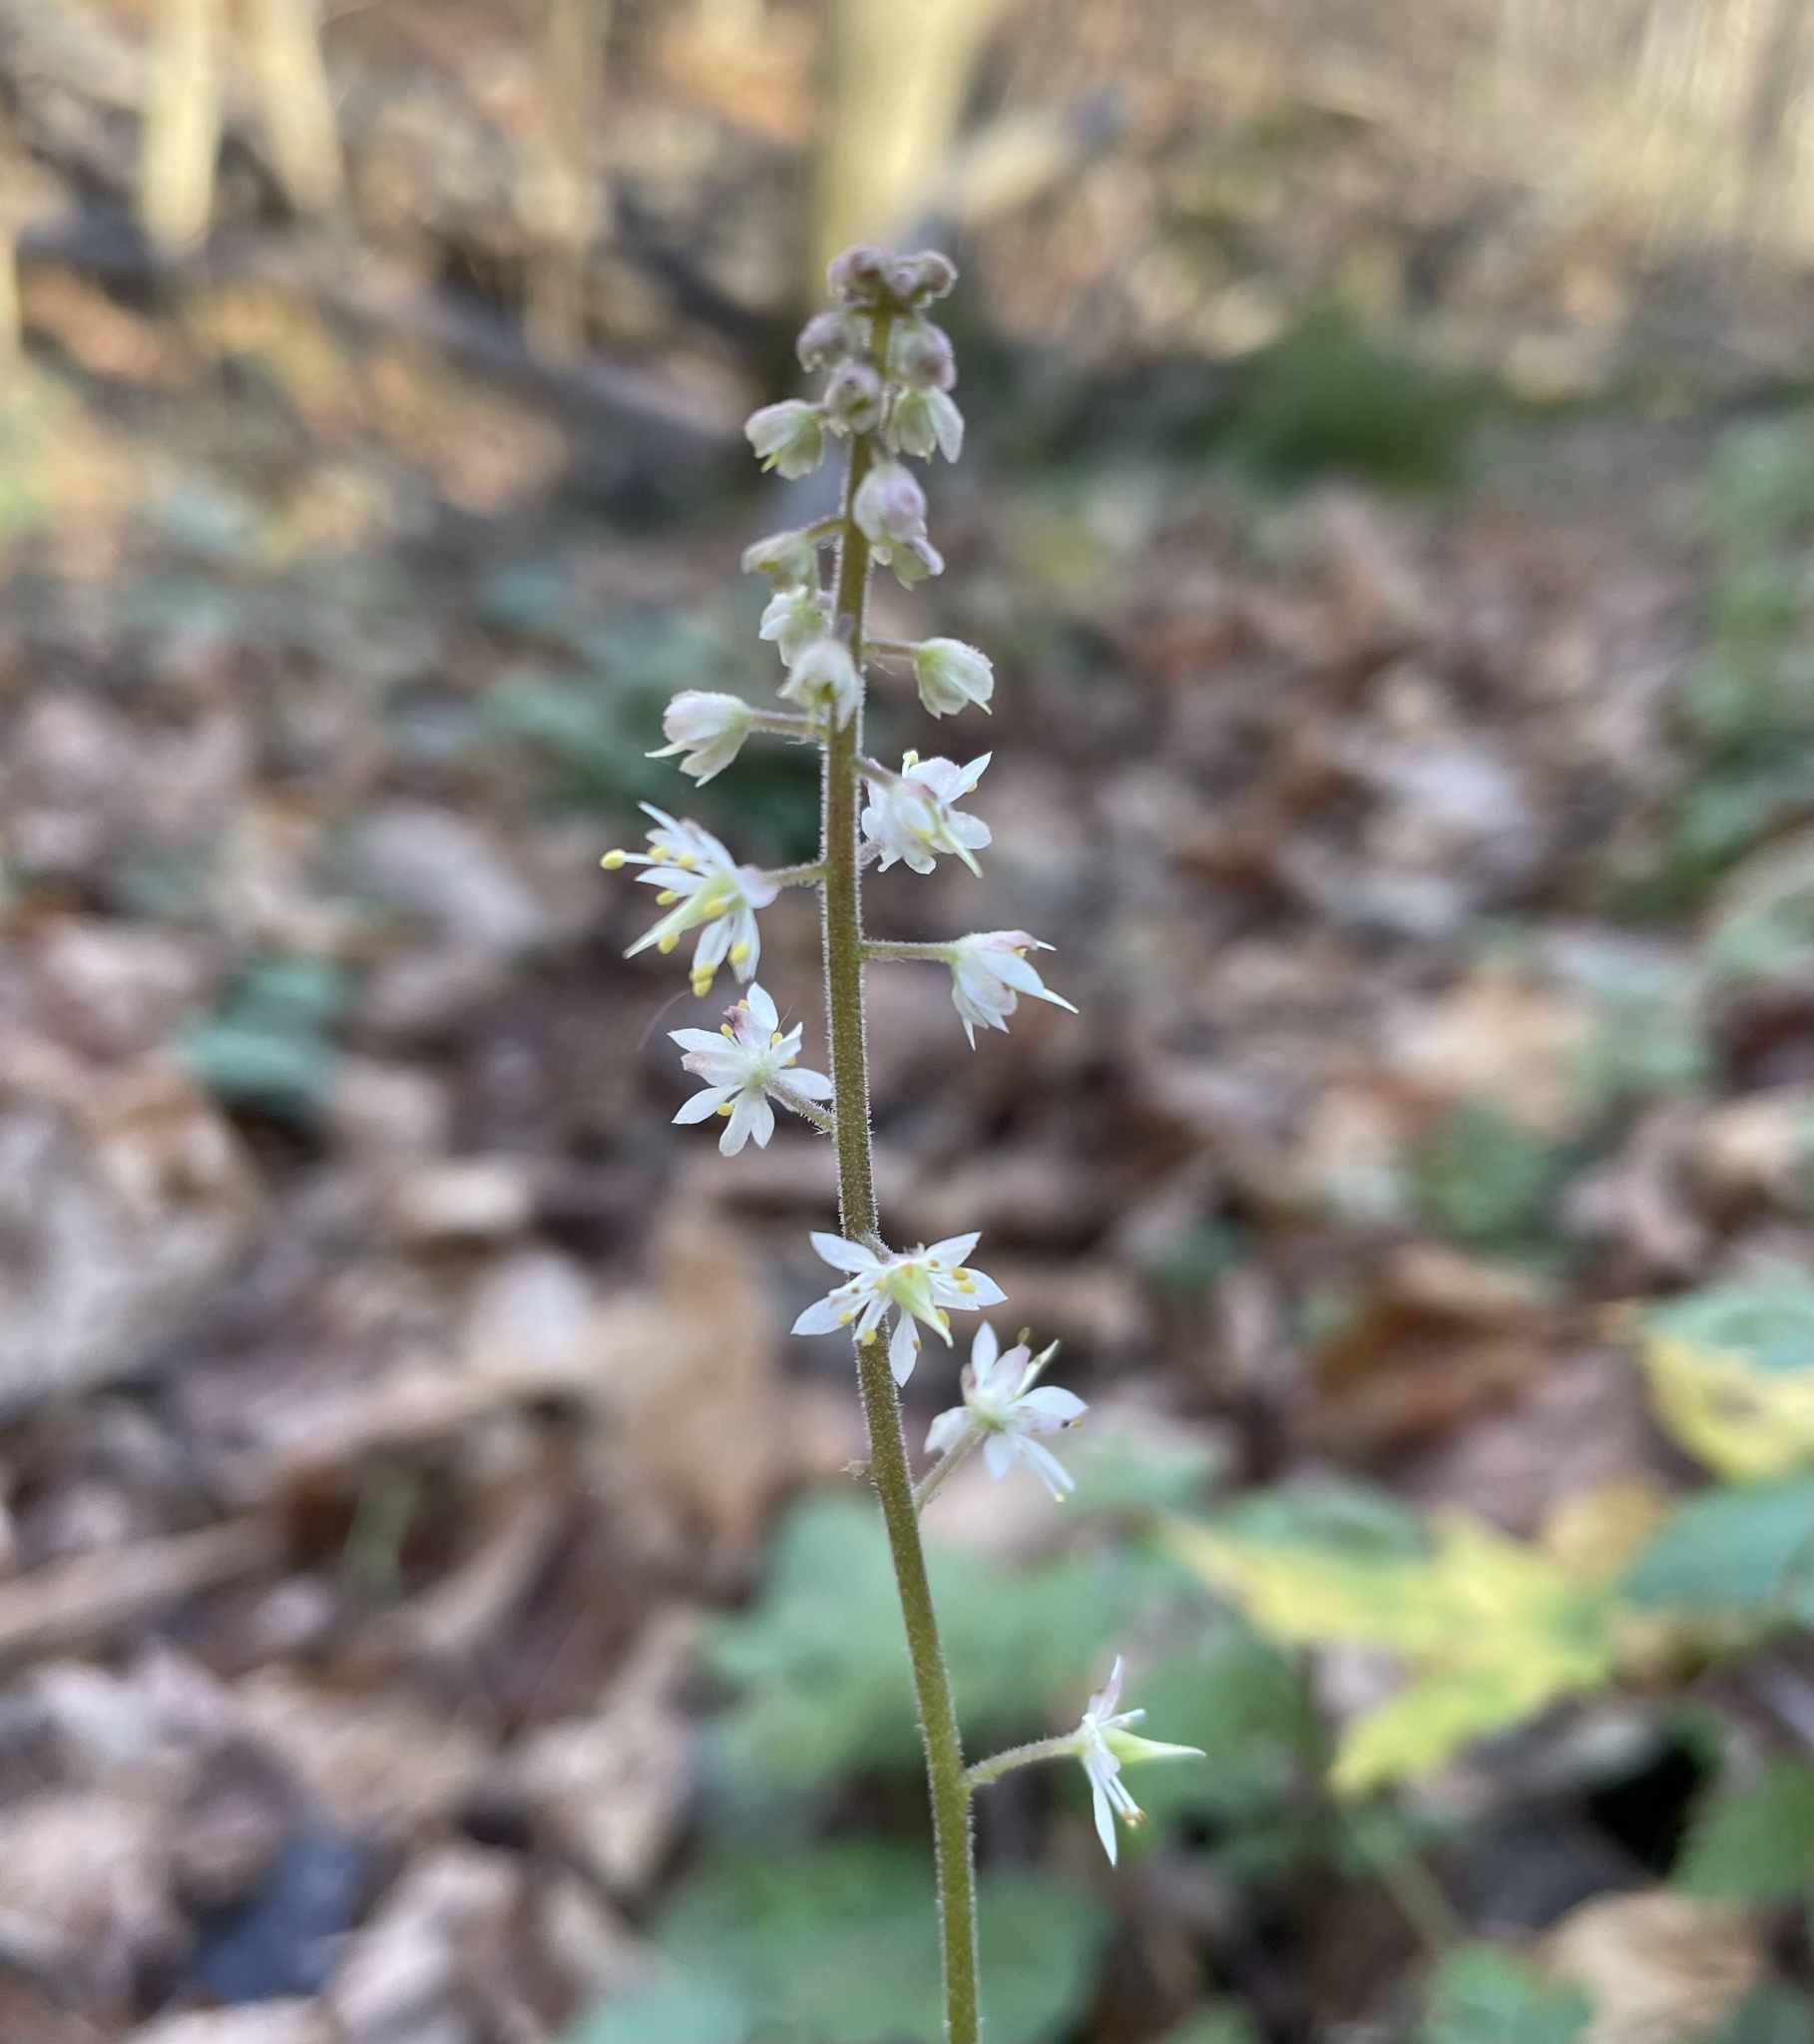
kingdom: Plantae
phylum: Tracheophyta
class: Magnoliopsida
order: Saxifragales
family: Saxifragaceae
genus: Tiarella
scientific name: Tiarella stolonifera
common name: Stoloniferous foamflower
